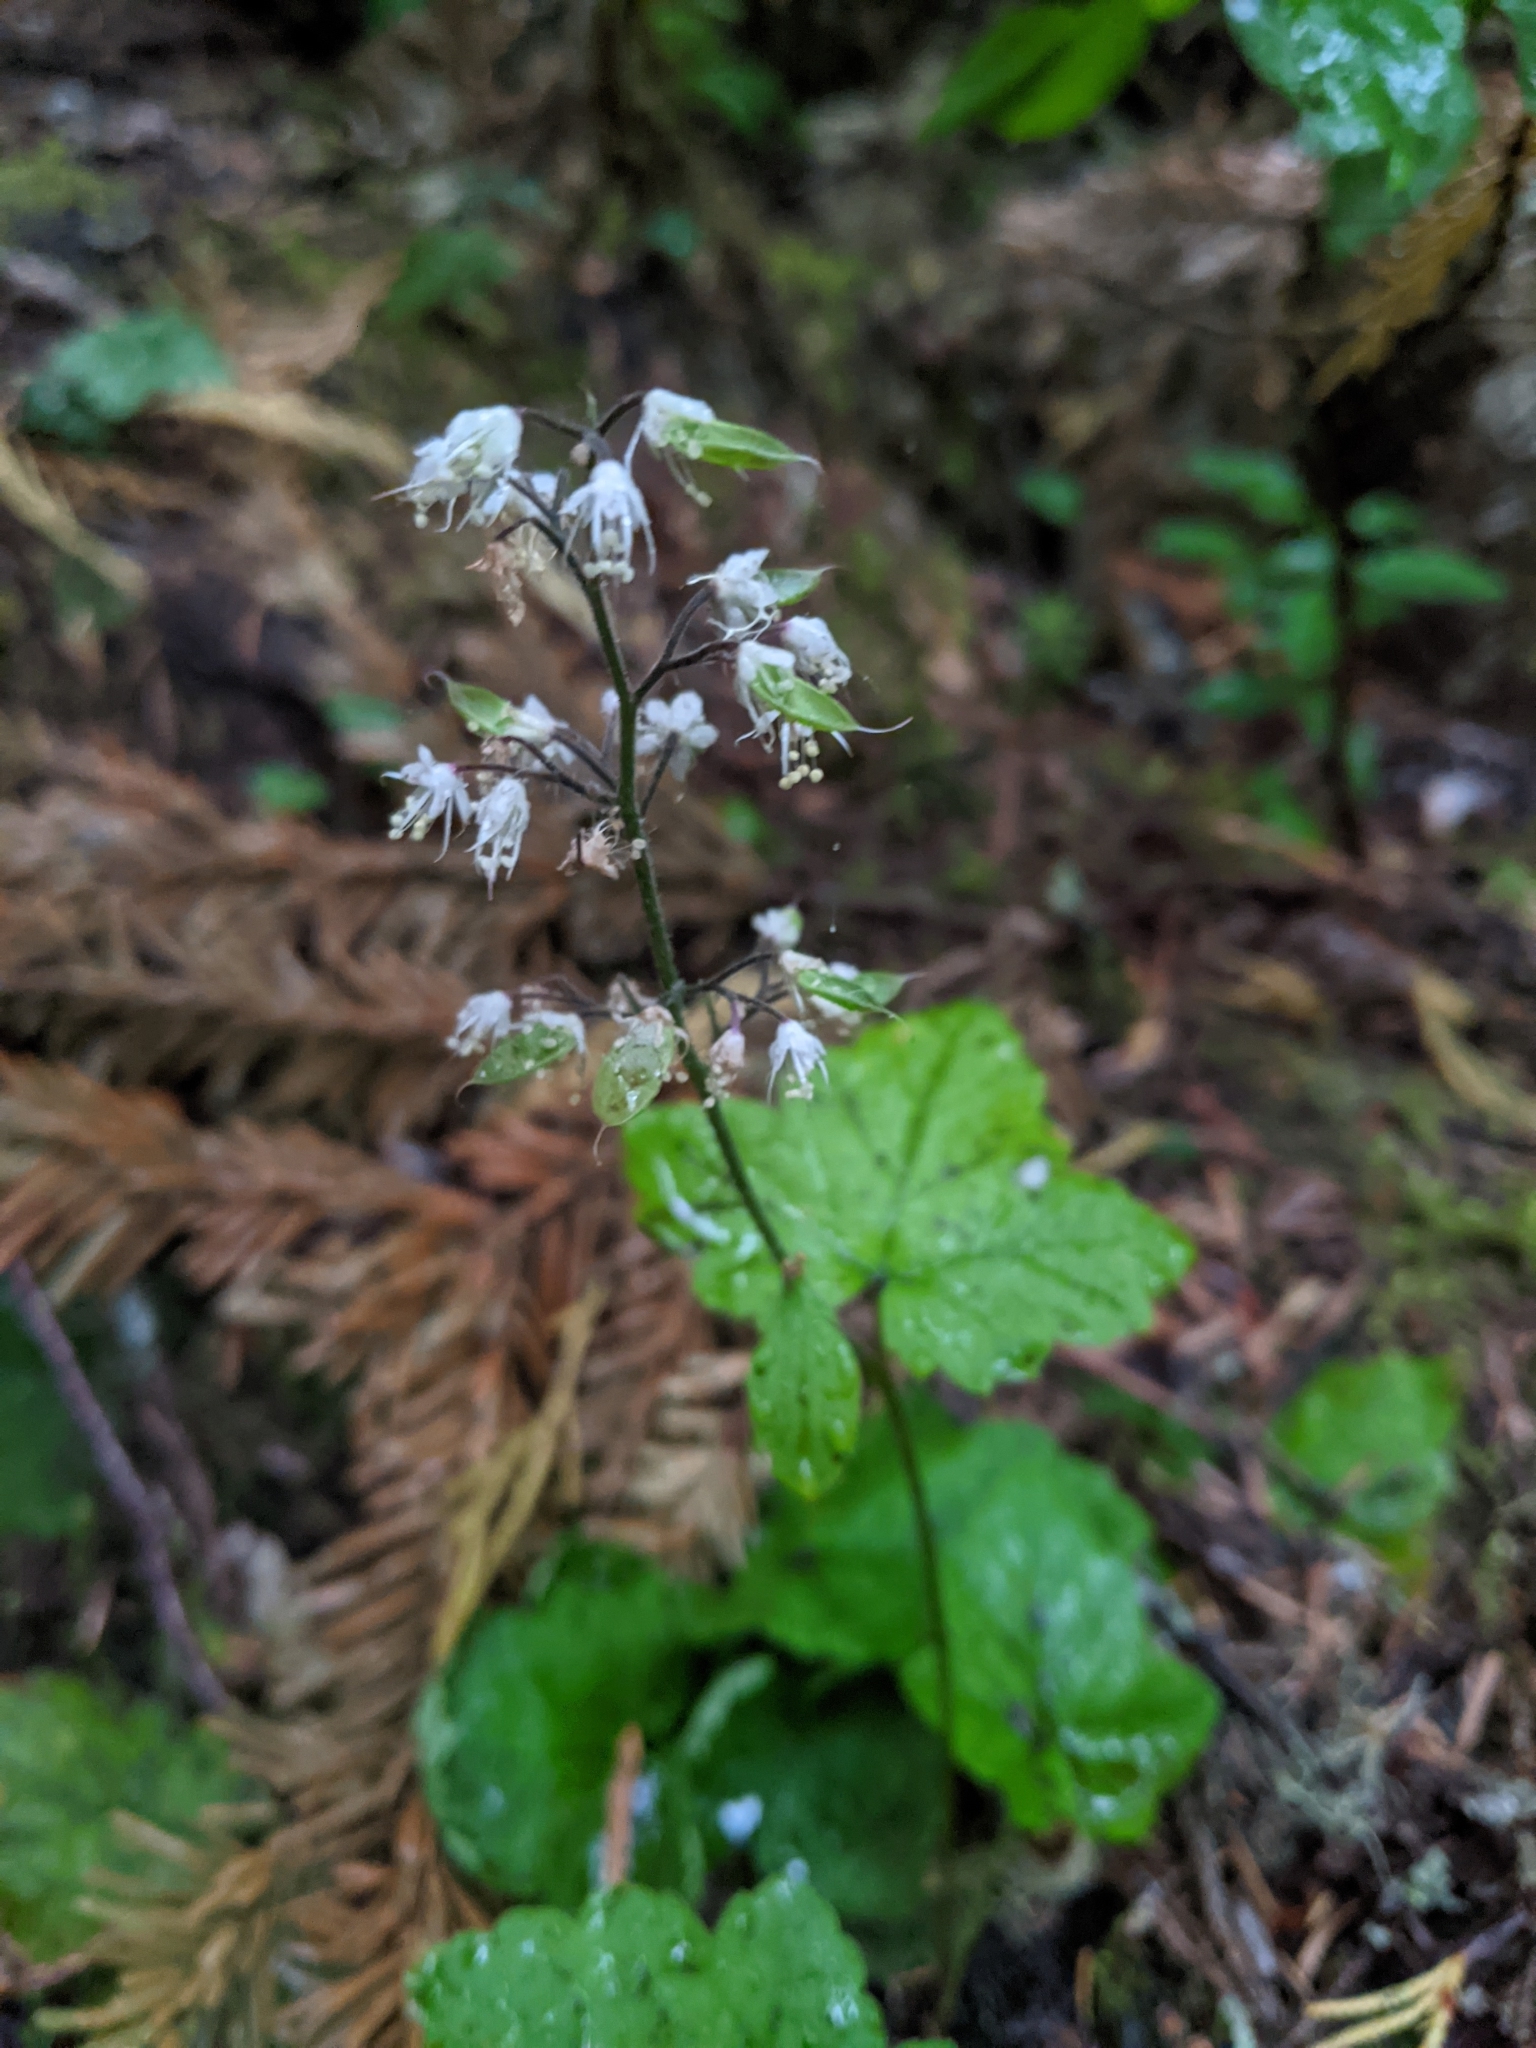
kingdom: Plantae
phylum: Tracheophyta
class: Magnoliopsida
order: Saxifragales
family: Saxifragaceae
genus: Tiarella
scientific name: Tiarella trifoliata
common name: Sugar-scoop
